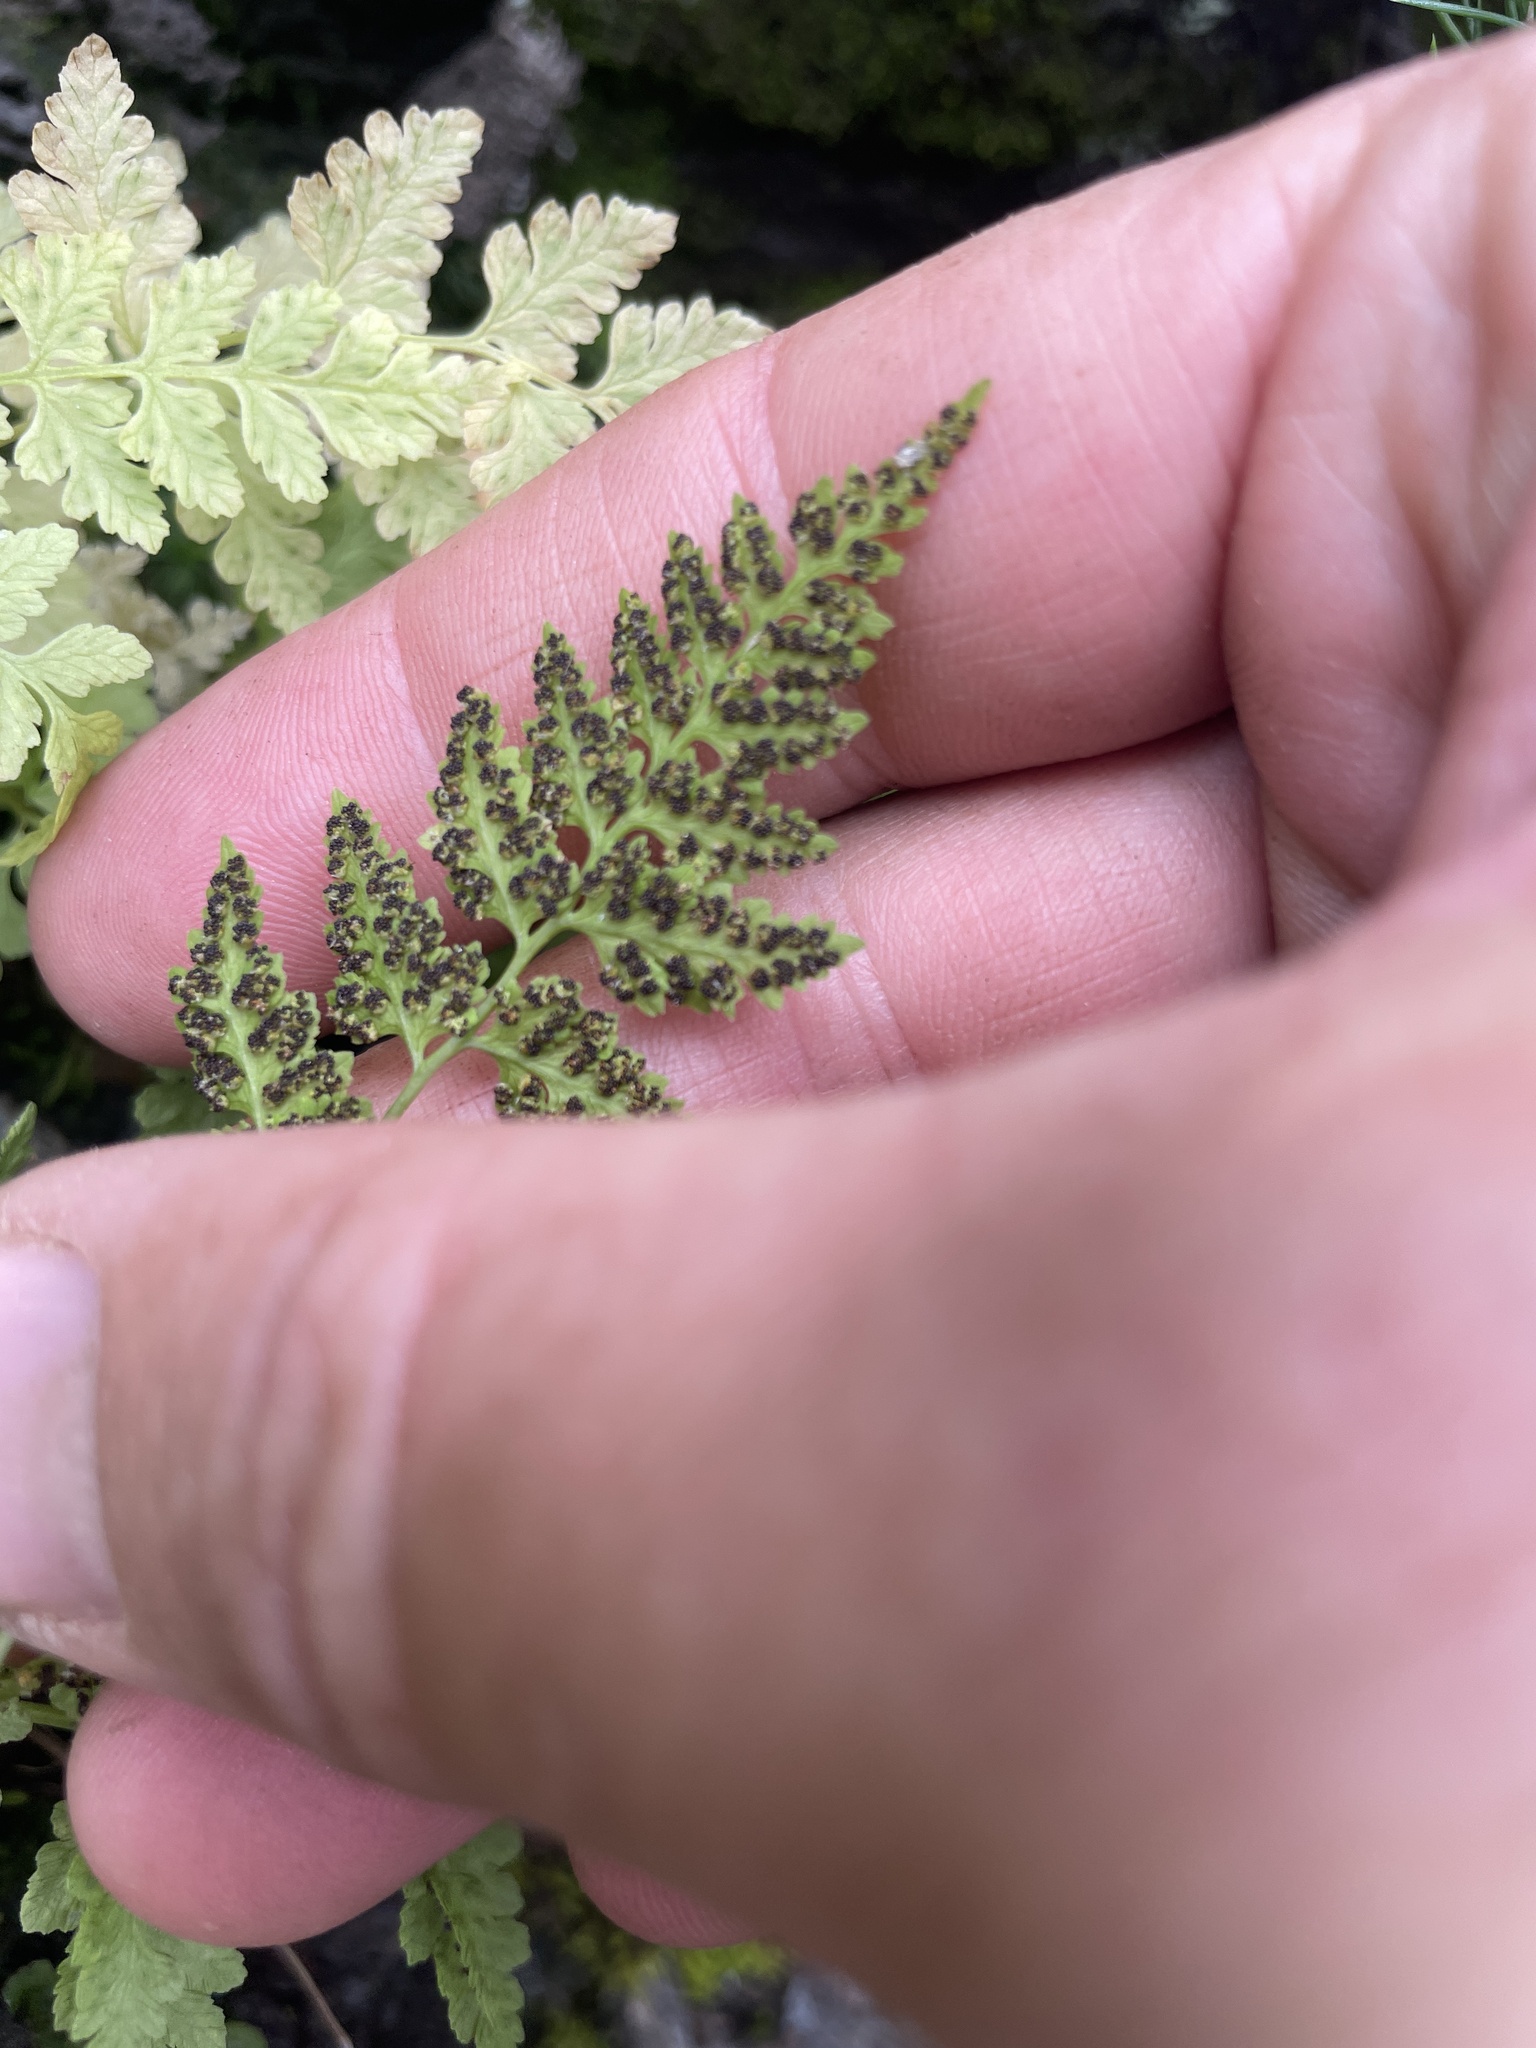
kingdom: Plantae
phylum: Tracheophyta
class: Polypodiopsida
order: Polypodiales
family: Cystopteridaceae
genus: Cystopteris
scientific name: Cystopteris fragilis
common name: Brittle bladder fern
